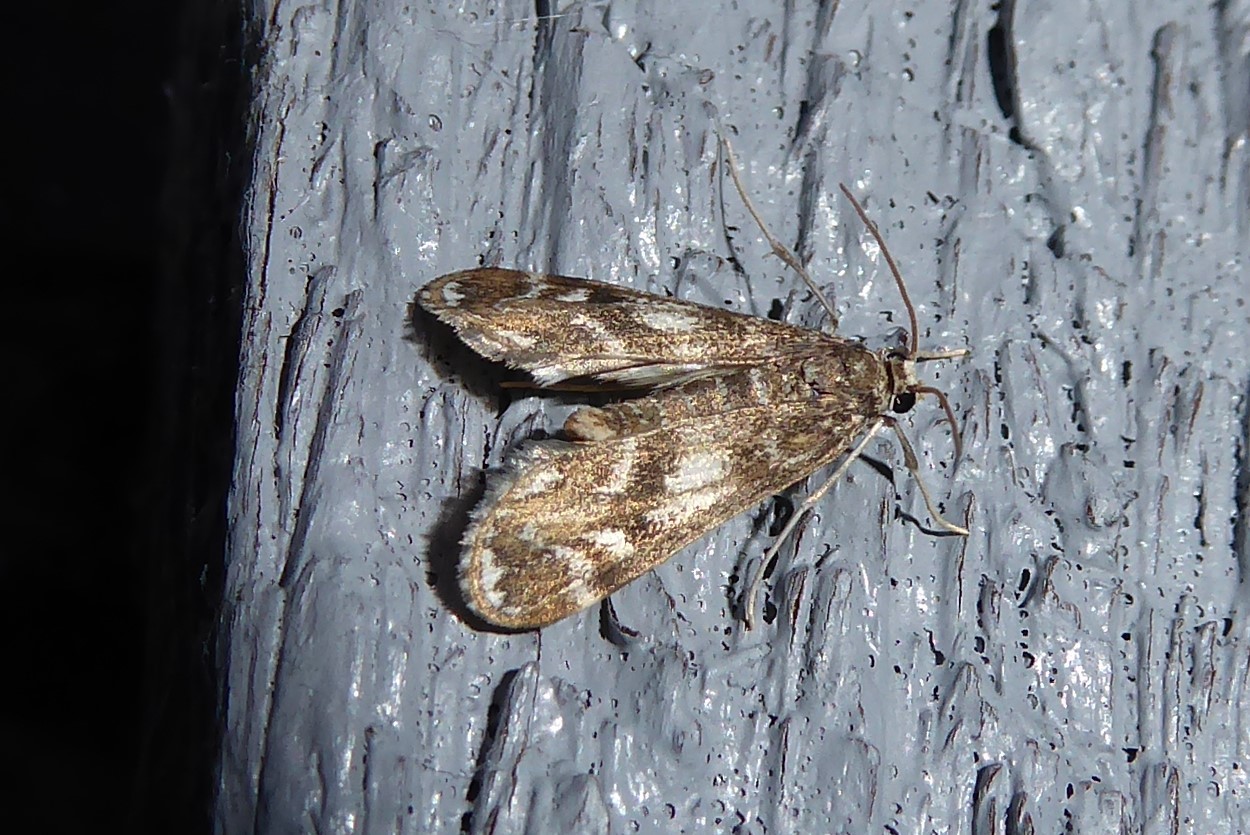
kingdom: Animalia
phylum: Arthropoda
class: Insecta
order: Lepidoptera
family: Crambidae
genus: Hygraula
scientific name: Hygraula nitens
